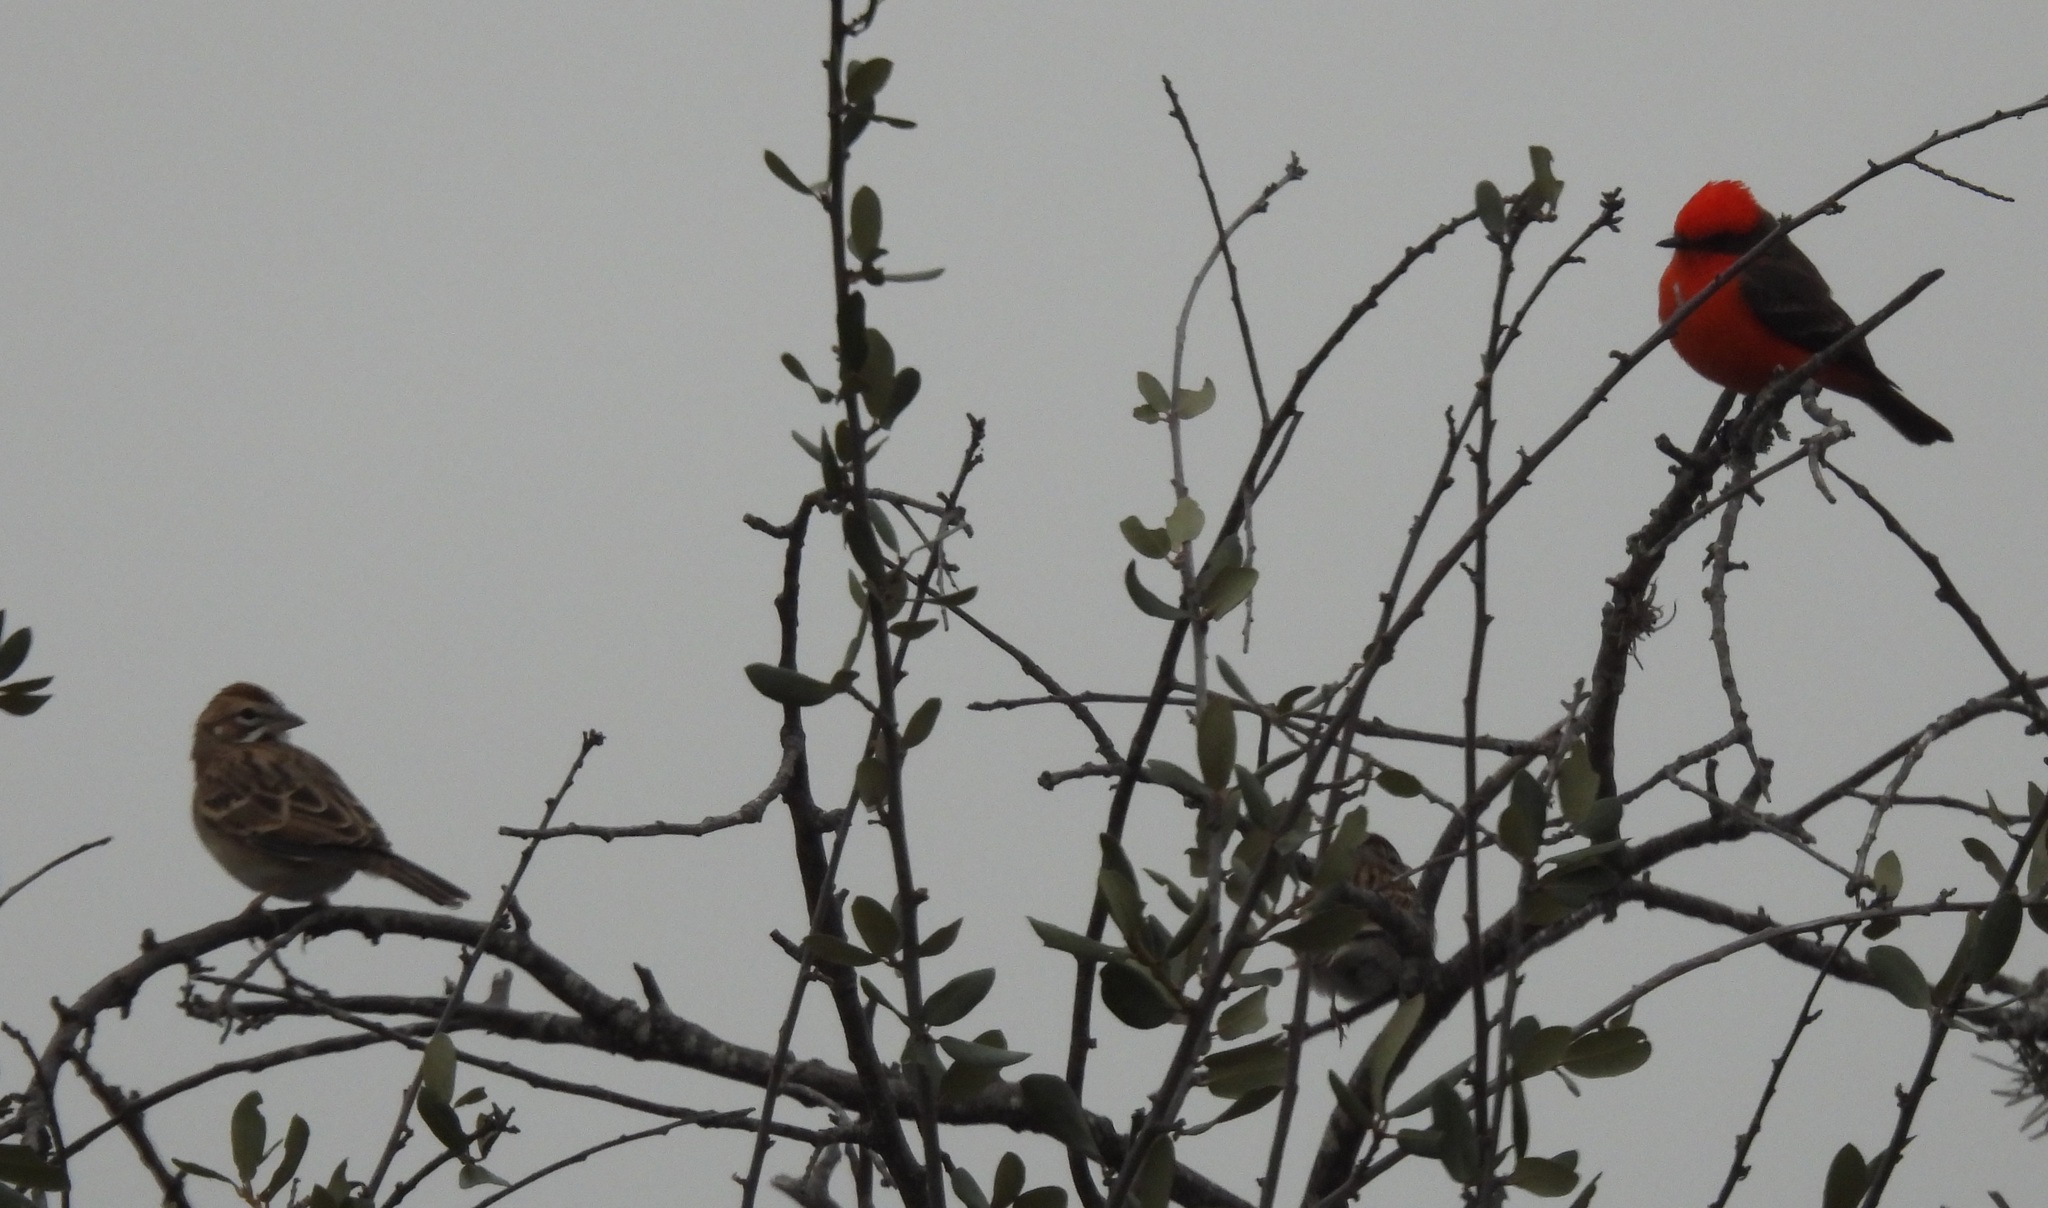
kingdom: Animalia
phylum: Chordata
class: Aves
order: Passeriformes
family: Passerellidae
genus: Chondestes
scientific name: Chondestes grammacus
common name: Lark sparrow
